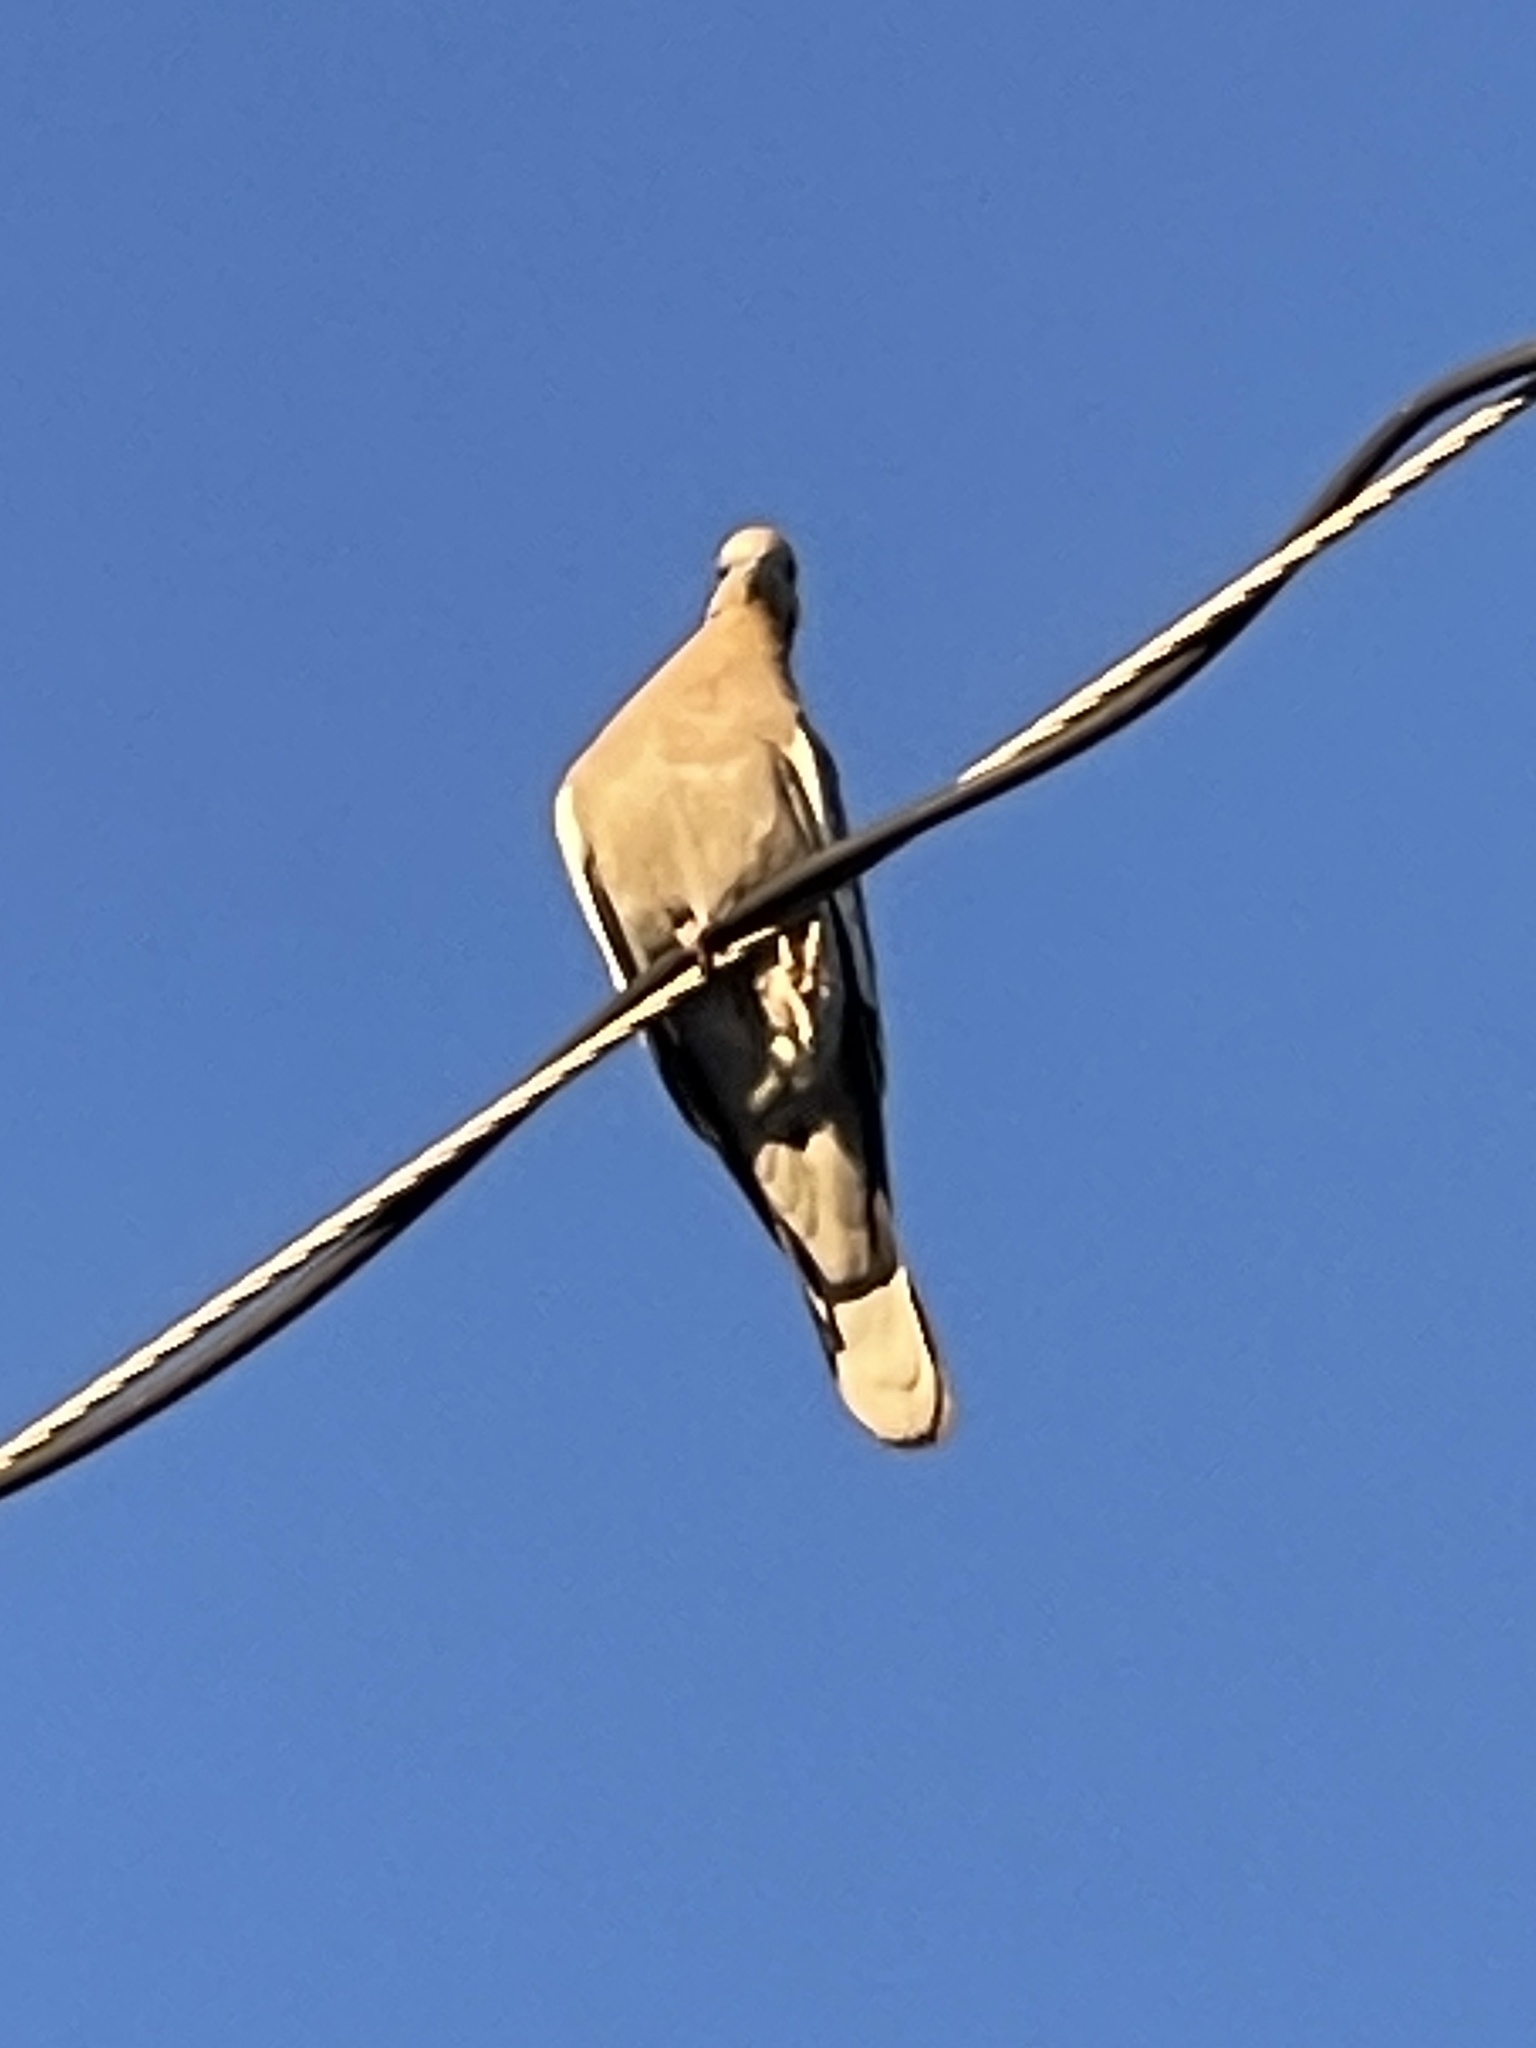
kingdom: Animalia
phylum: Chordata
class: Aves
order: Columbiformes
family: Columbidae
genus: Zenaida
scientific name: Zenaida asiatica
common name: White-winged dove
